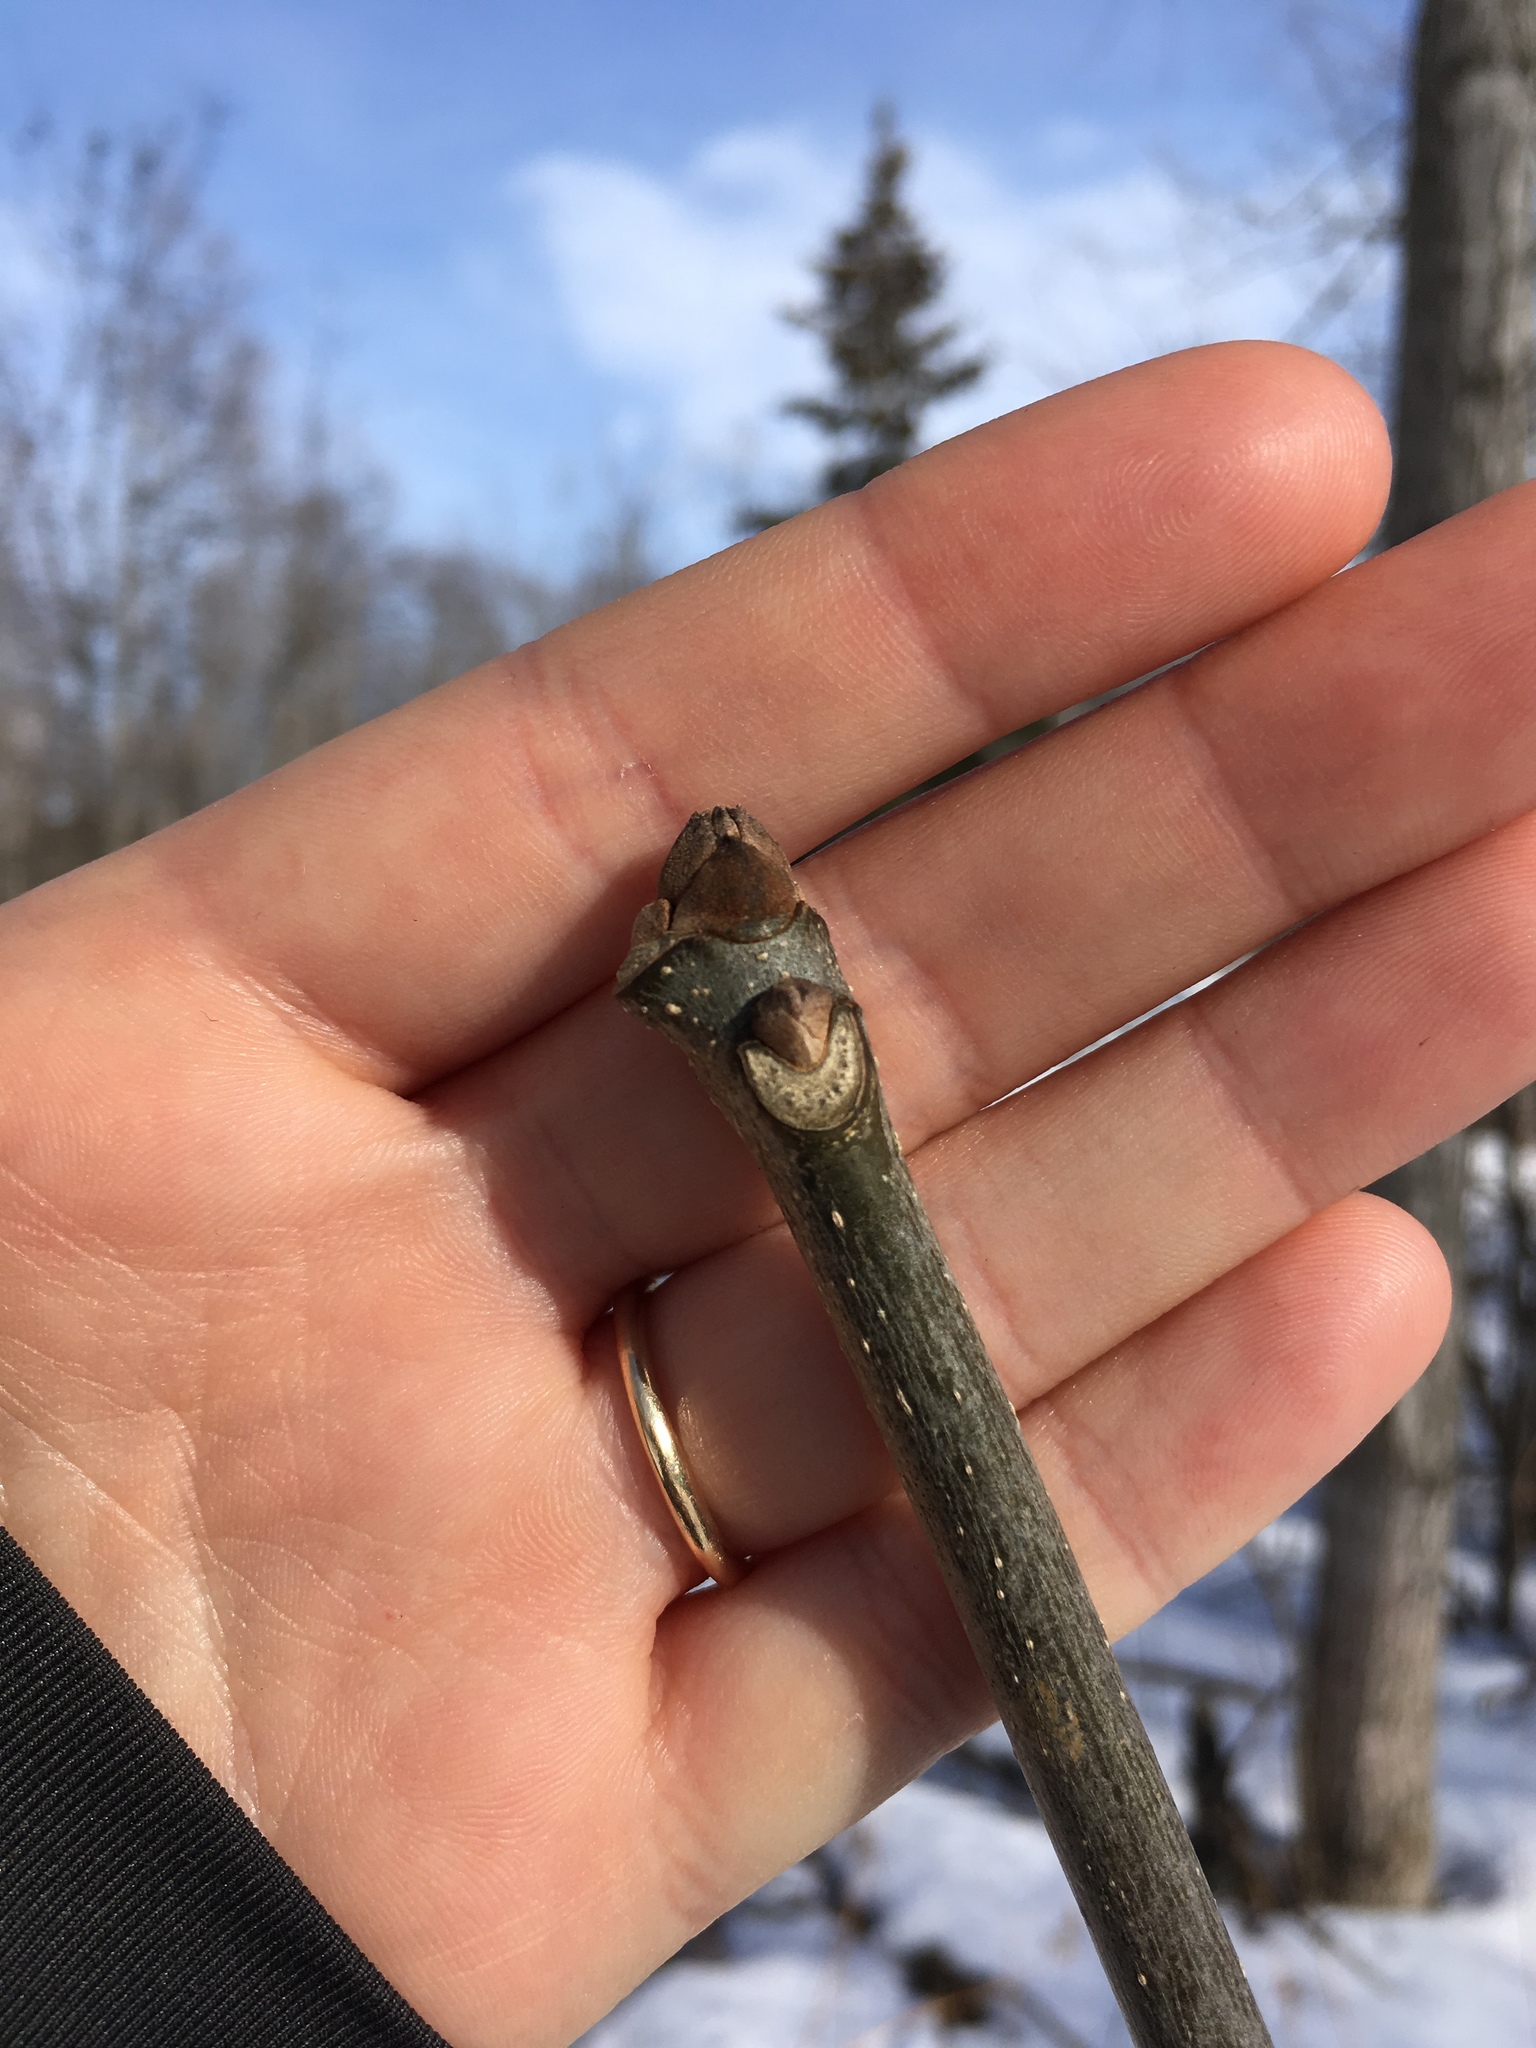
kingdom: Plantae
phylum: Tracheophyta
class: Magnoliopsida
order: Lamiales
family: Oleaceae
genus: Fraxinus
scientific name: Fraxinus americana
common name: White ash
